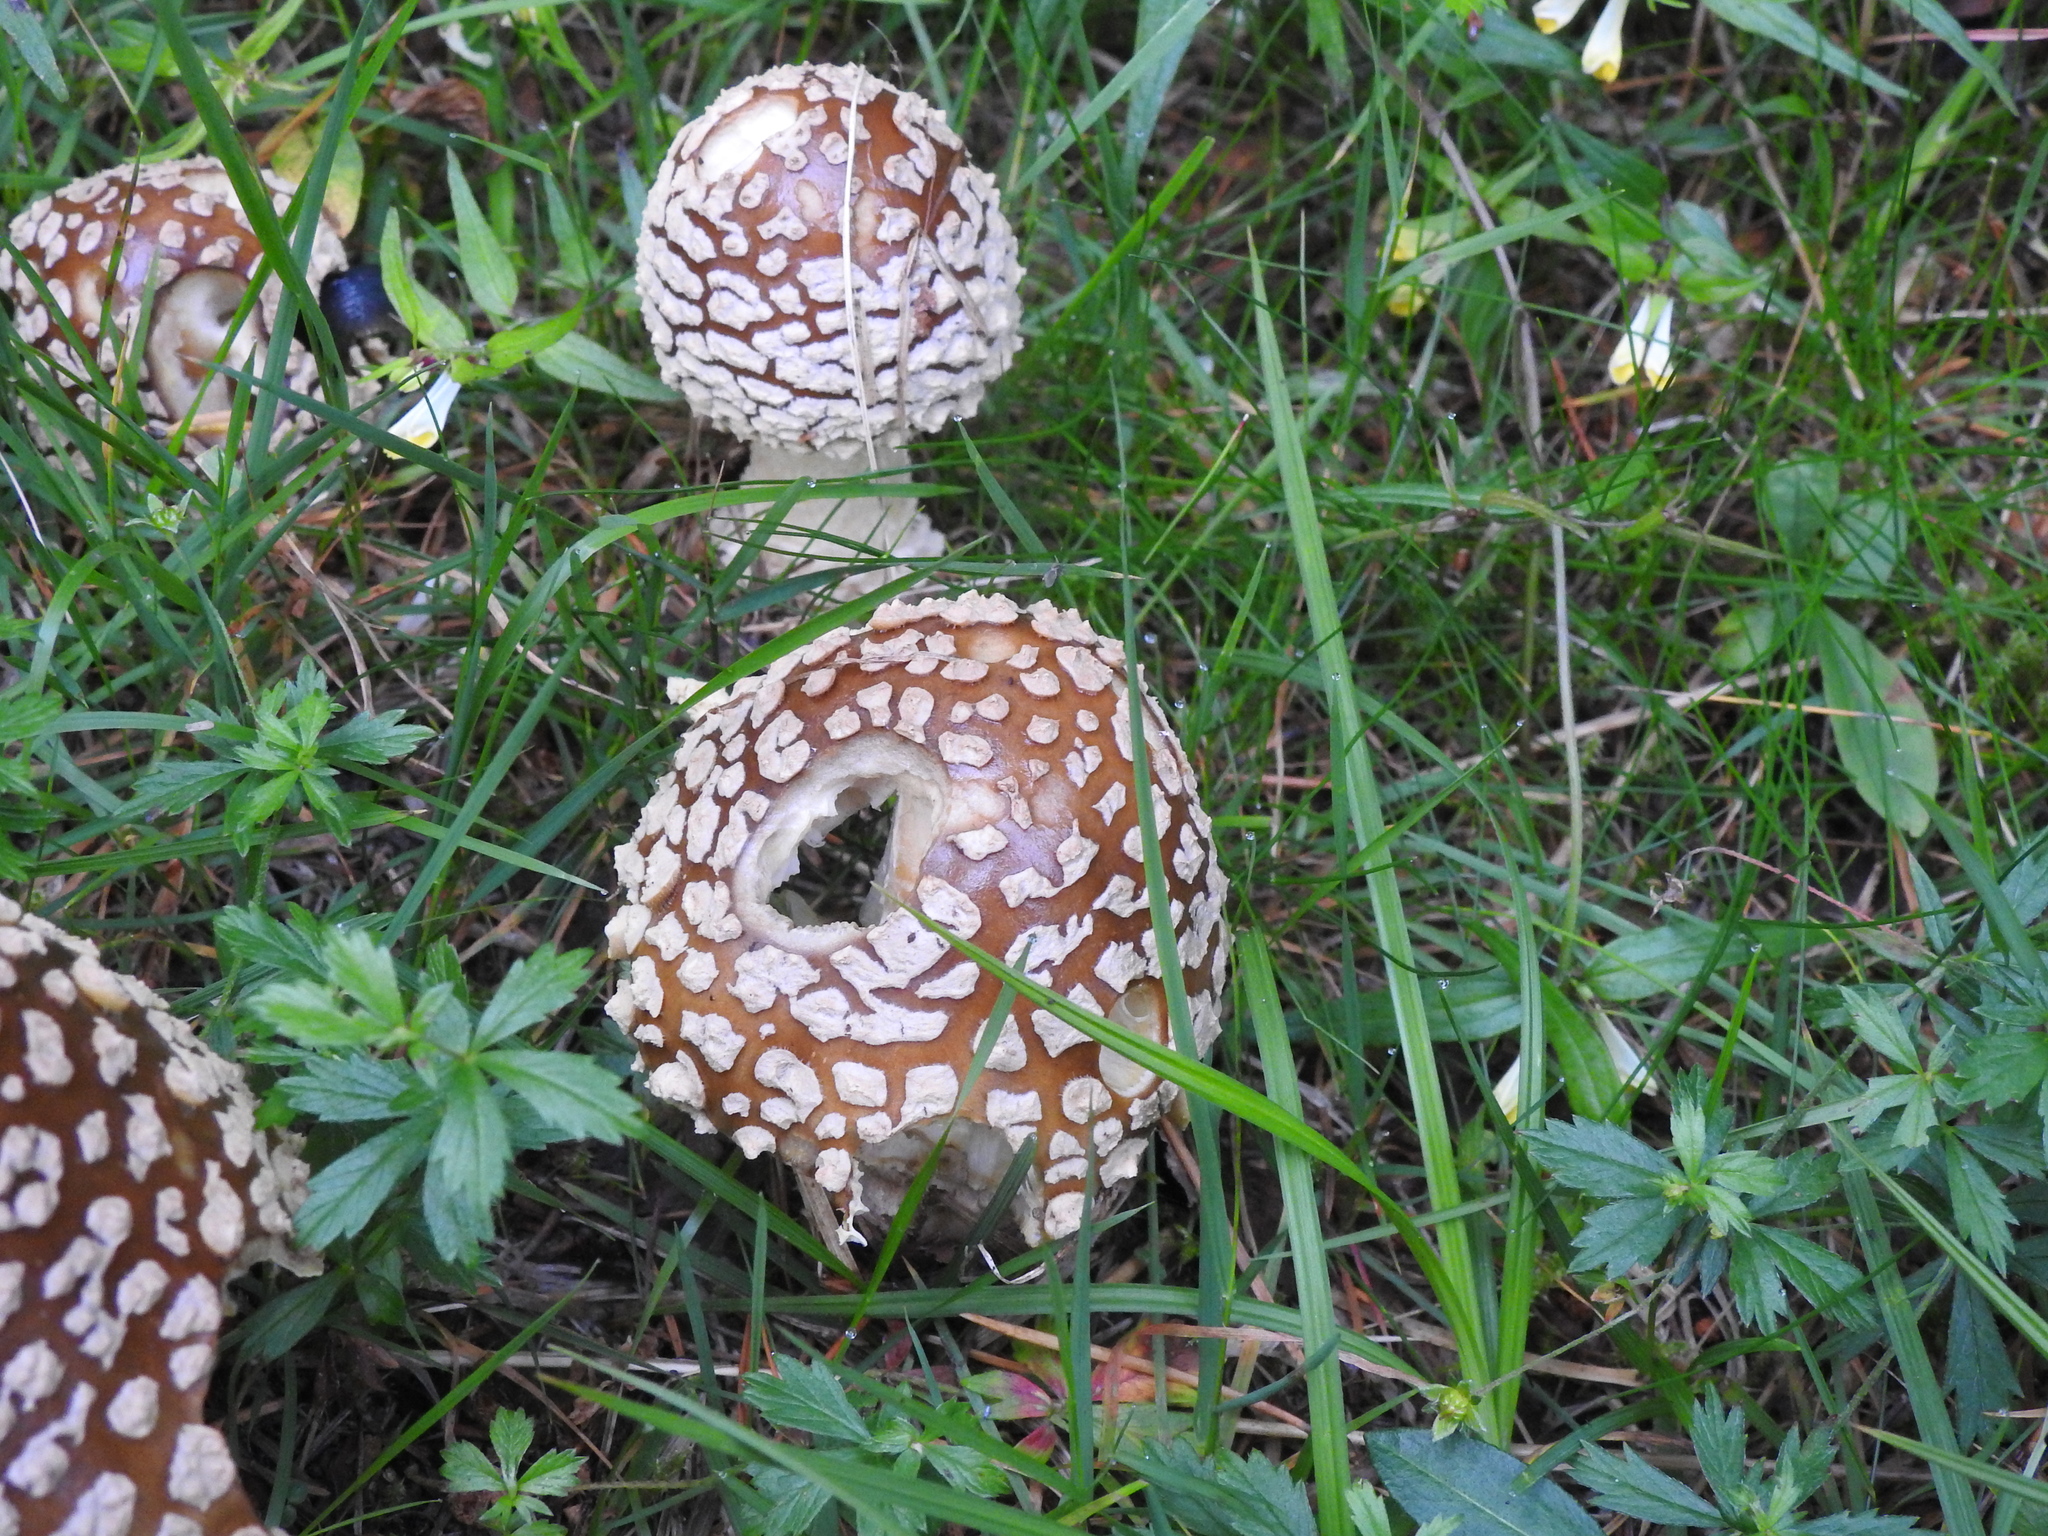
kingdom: Fungi
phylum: Basidiomycota
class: Agaricomycetes
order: Agaricales
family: Amanitaceae
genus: Amanita
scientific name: Amanita regalis
